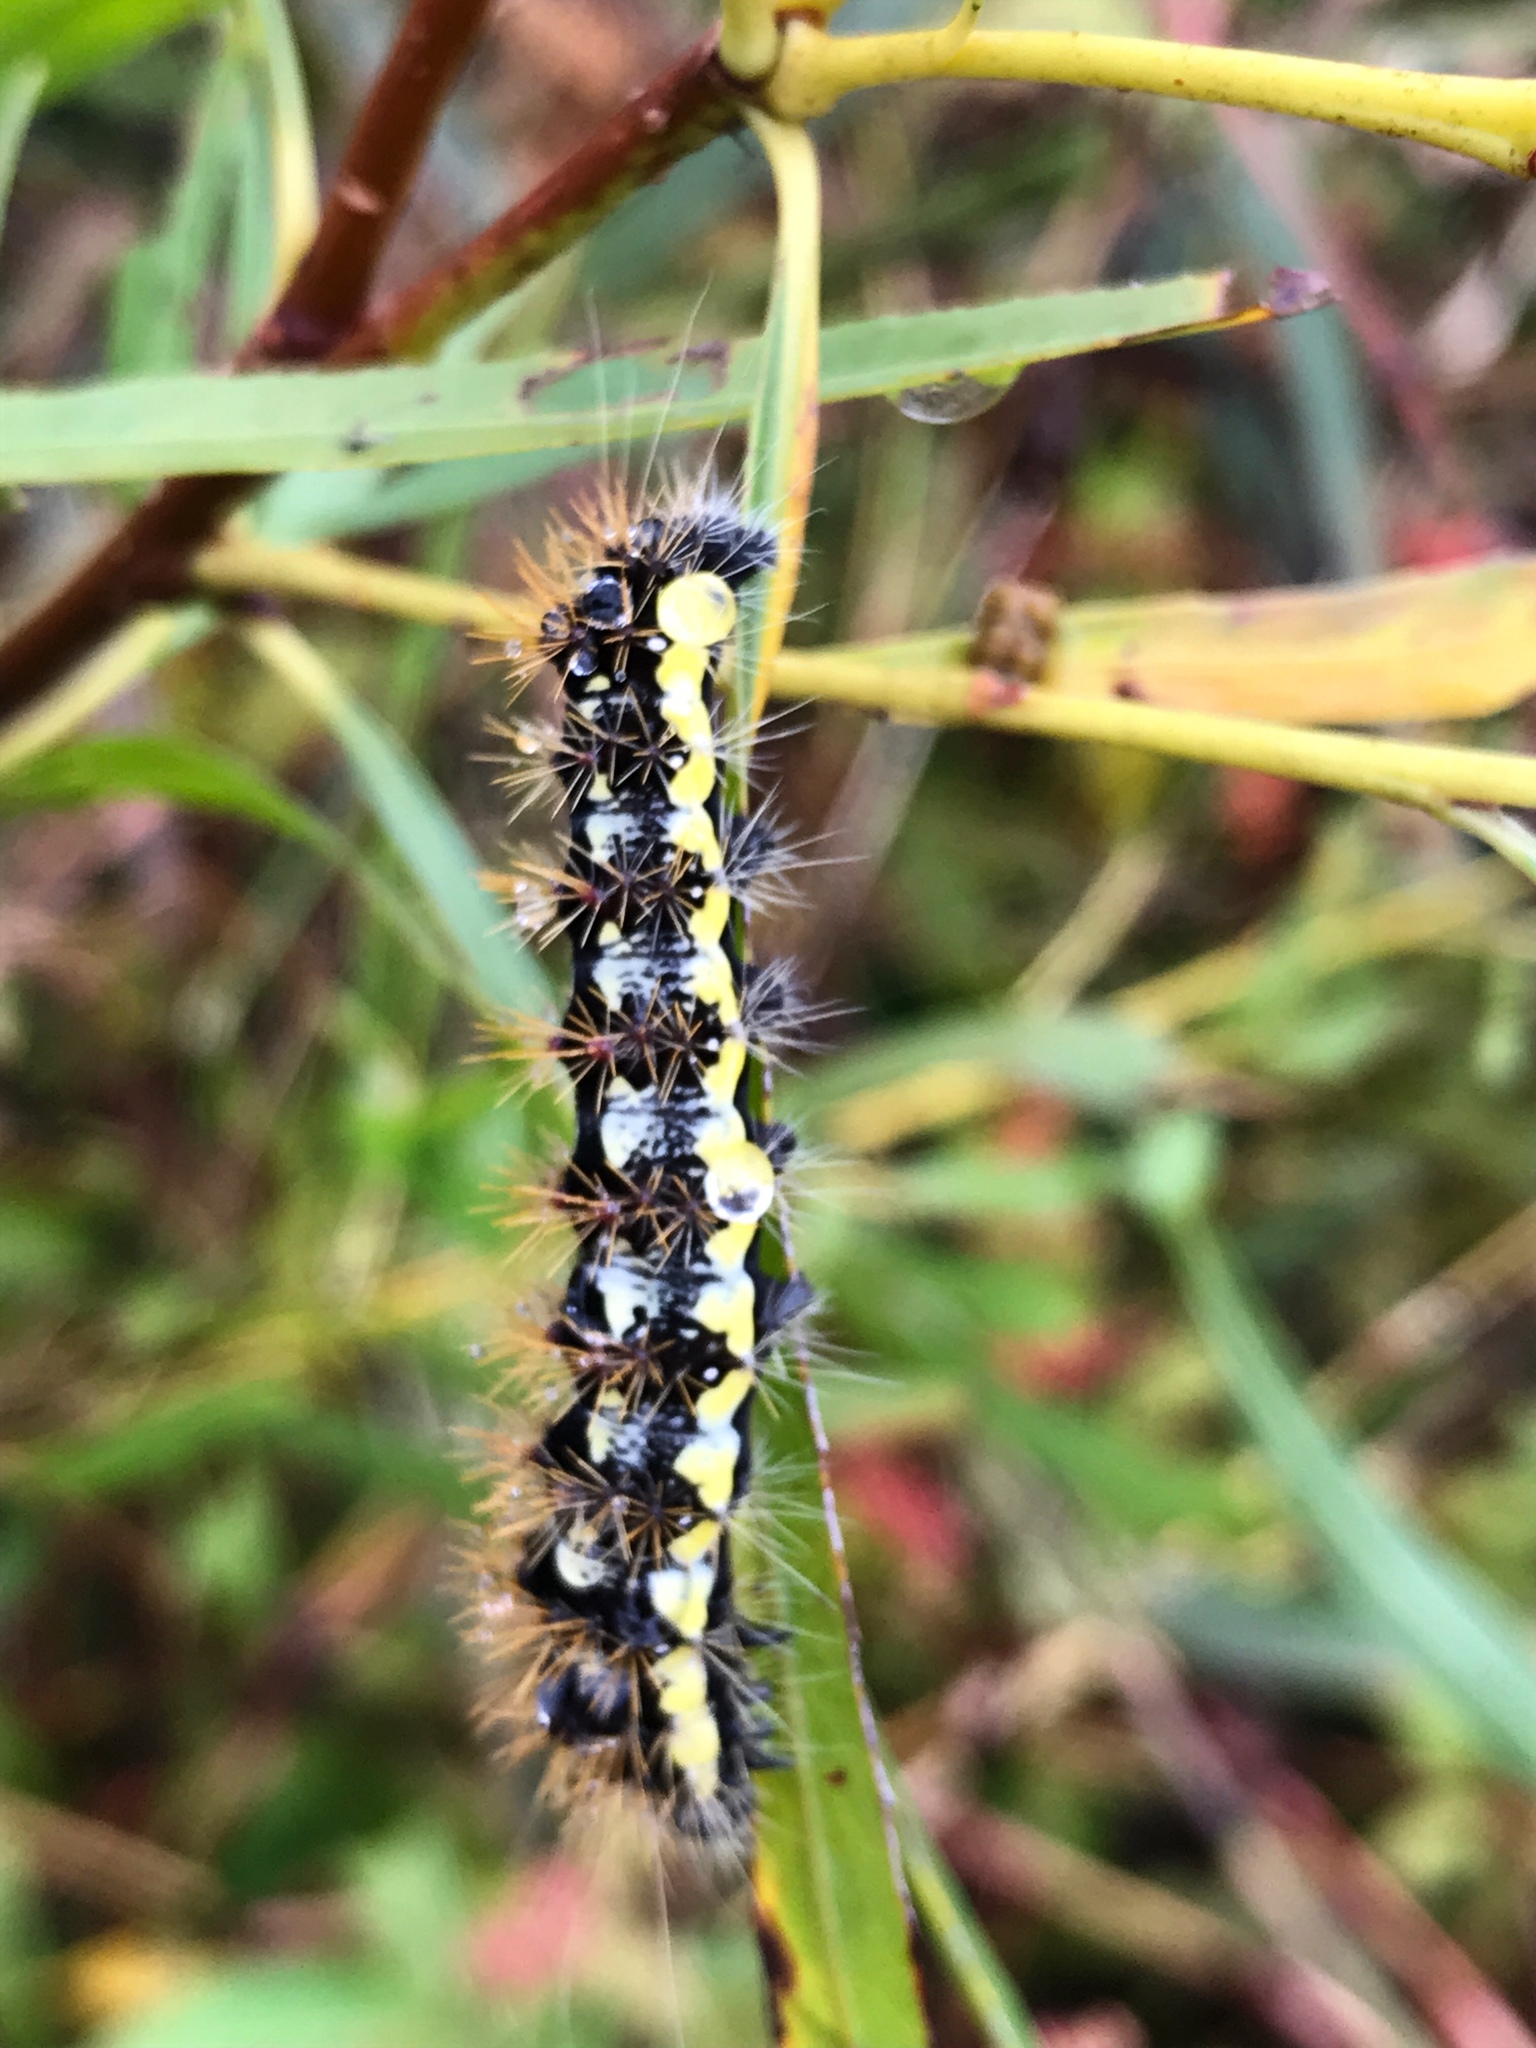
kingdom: Animalia
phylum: Arthropoda
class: Insecta
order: Lepidoptera
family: Noctuidae
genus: Acronicta
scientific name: Acronicta oblinita
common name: Smeared dagger
